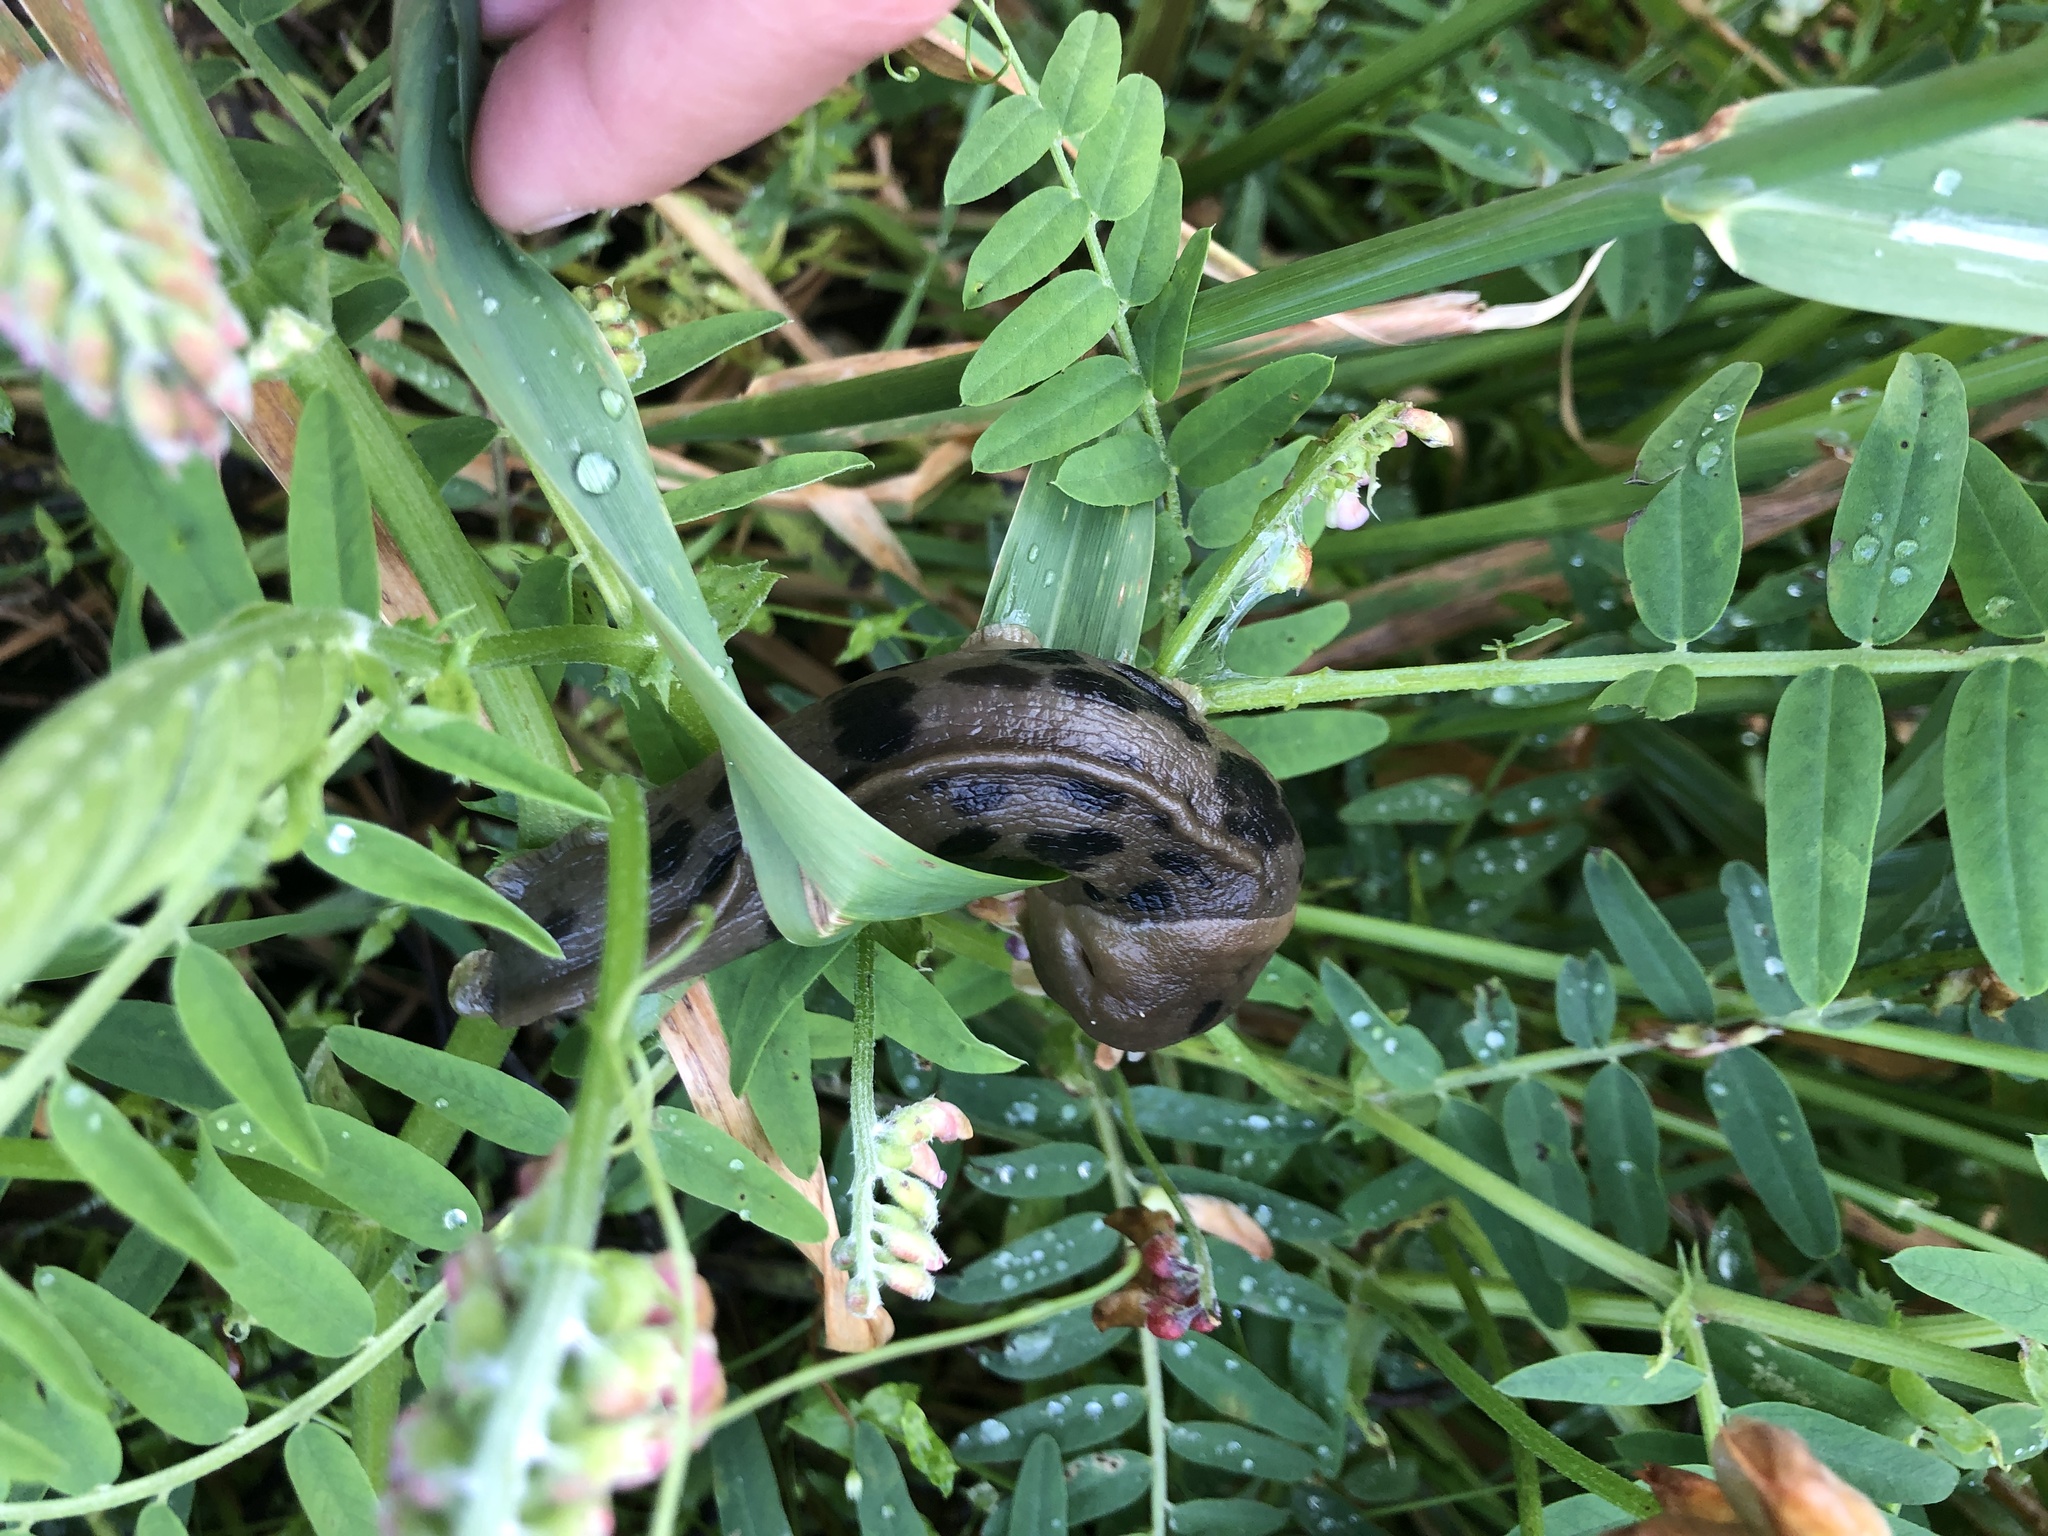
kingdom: Animalia
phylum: Mollusca
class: Gastropoda
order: Stylommatophora
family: Ariolimacidae
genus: Ariolimax
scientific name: Ariolimax columbianus
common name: Pacific banana slug
